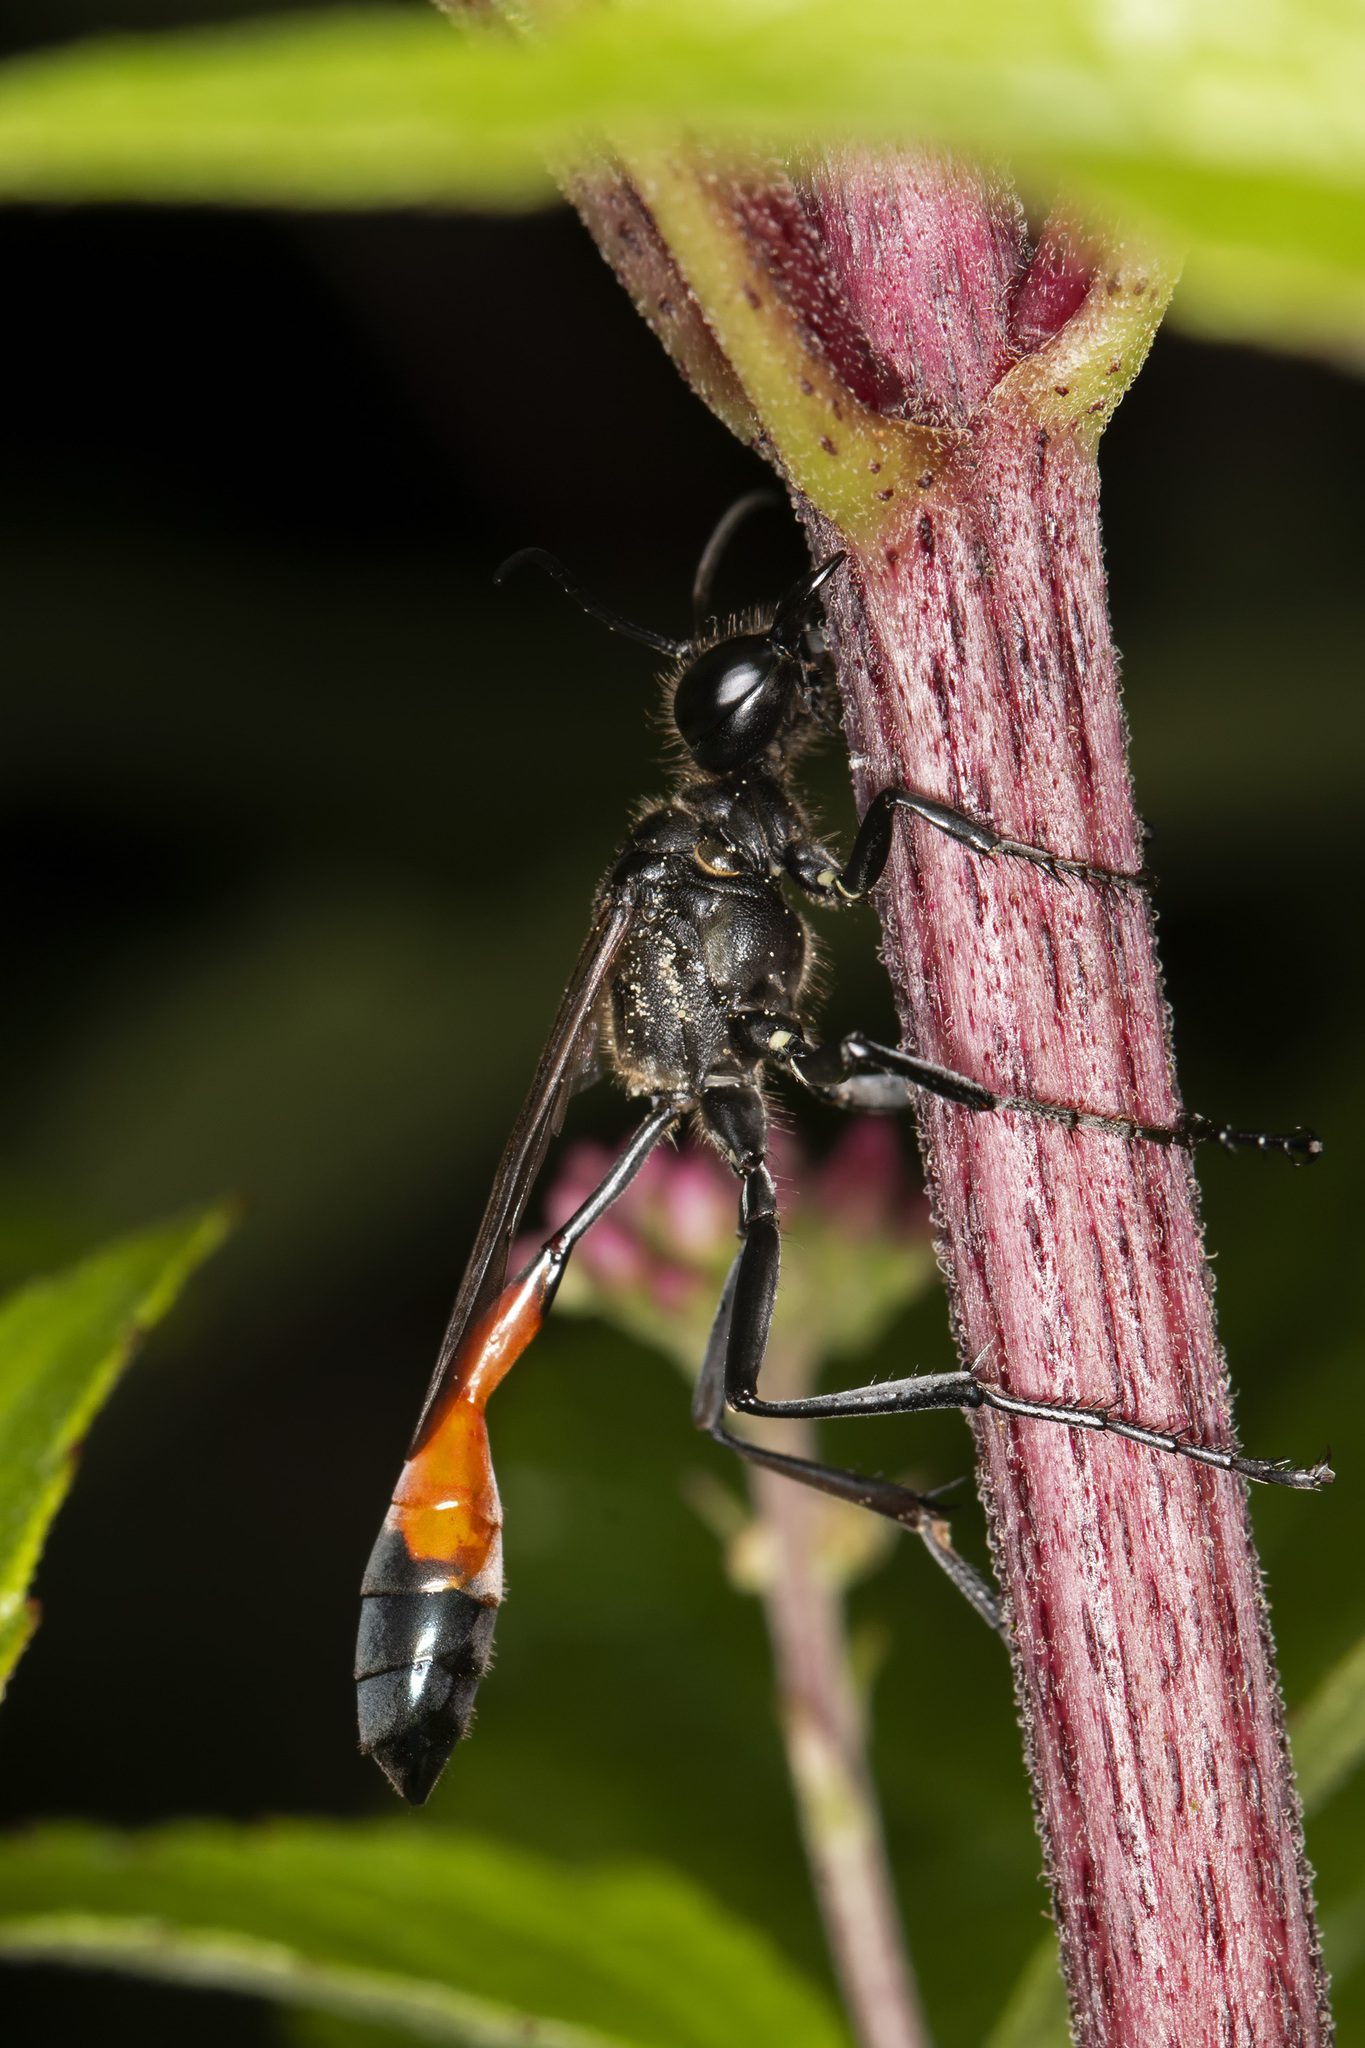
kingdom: Animalia
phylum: Arthropoda
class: Insecta
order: Hymenoptera
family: Sphecidae
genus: Ammophila
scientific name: Ammophila sabulosa
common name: Red banded sand wasp
